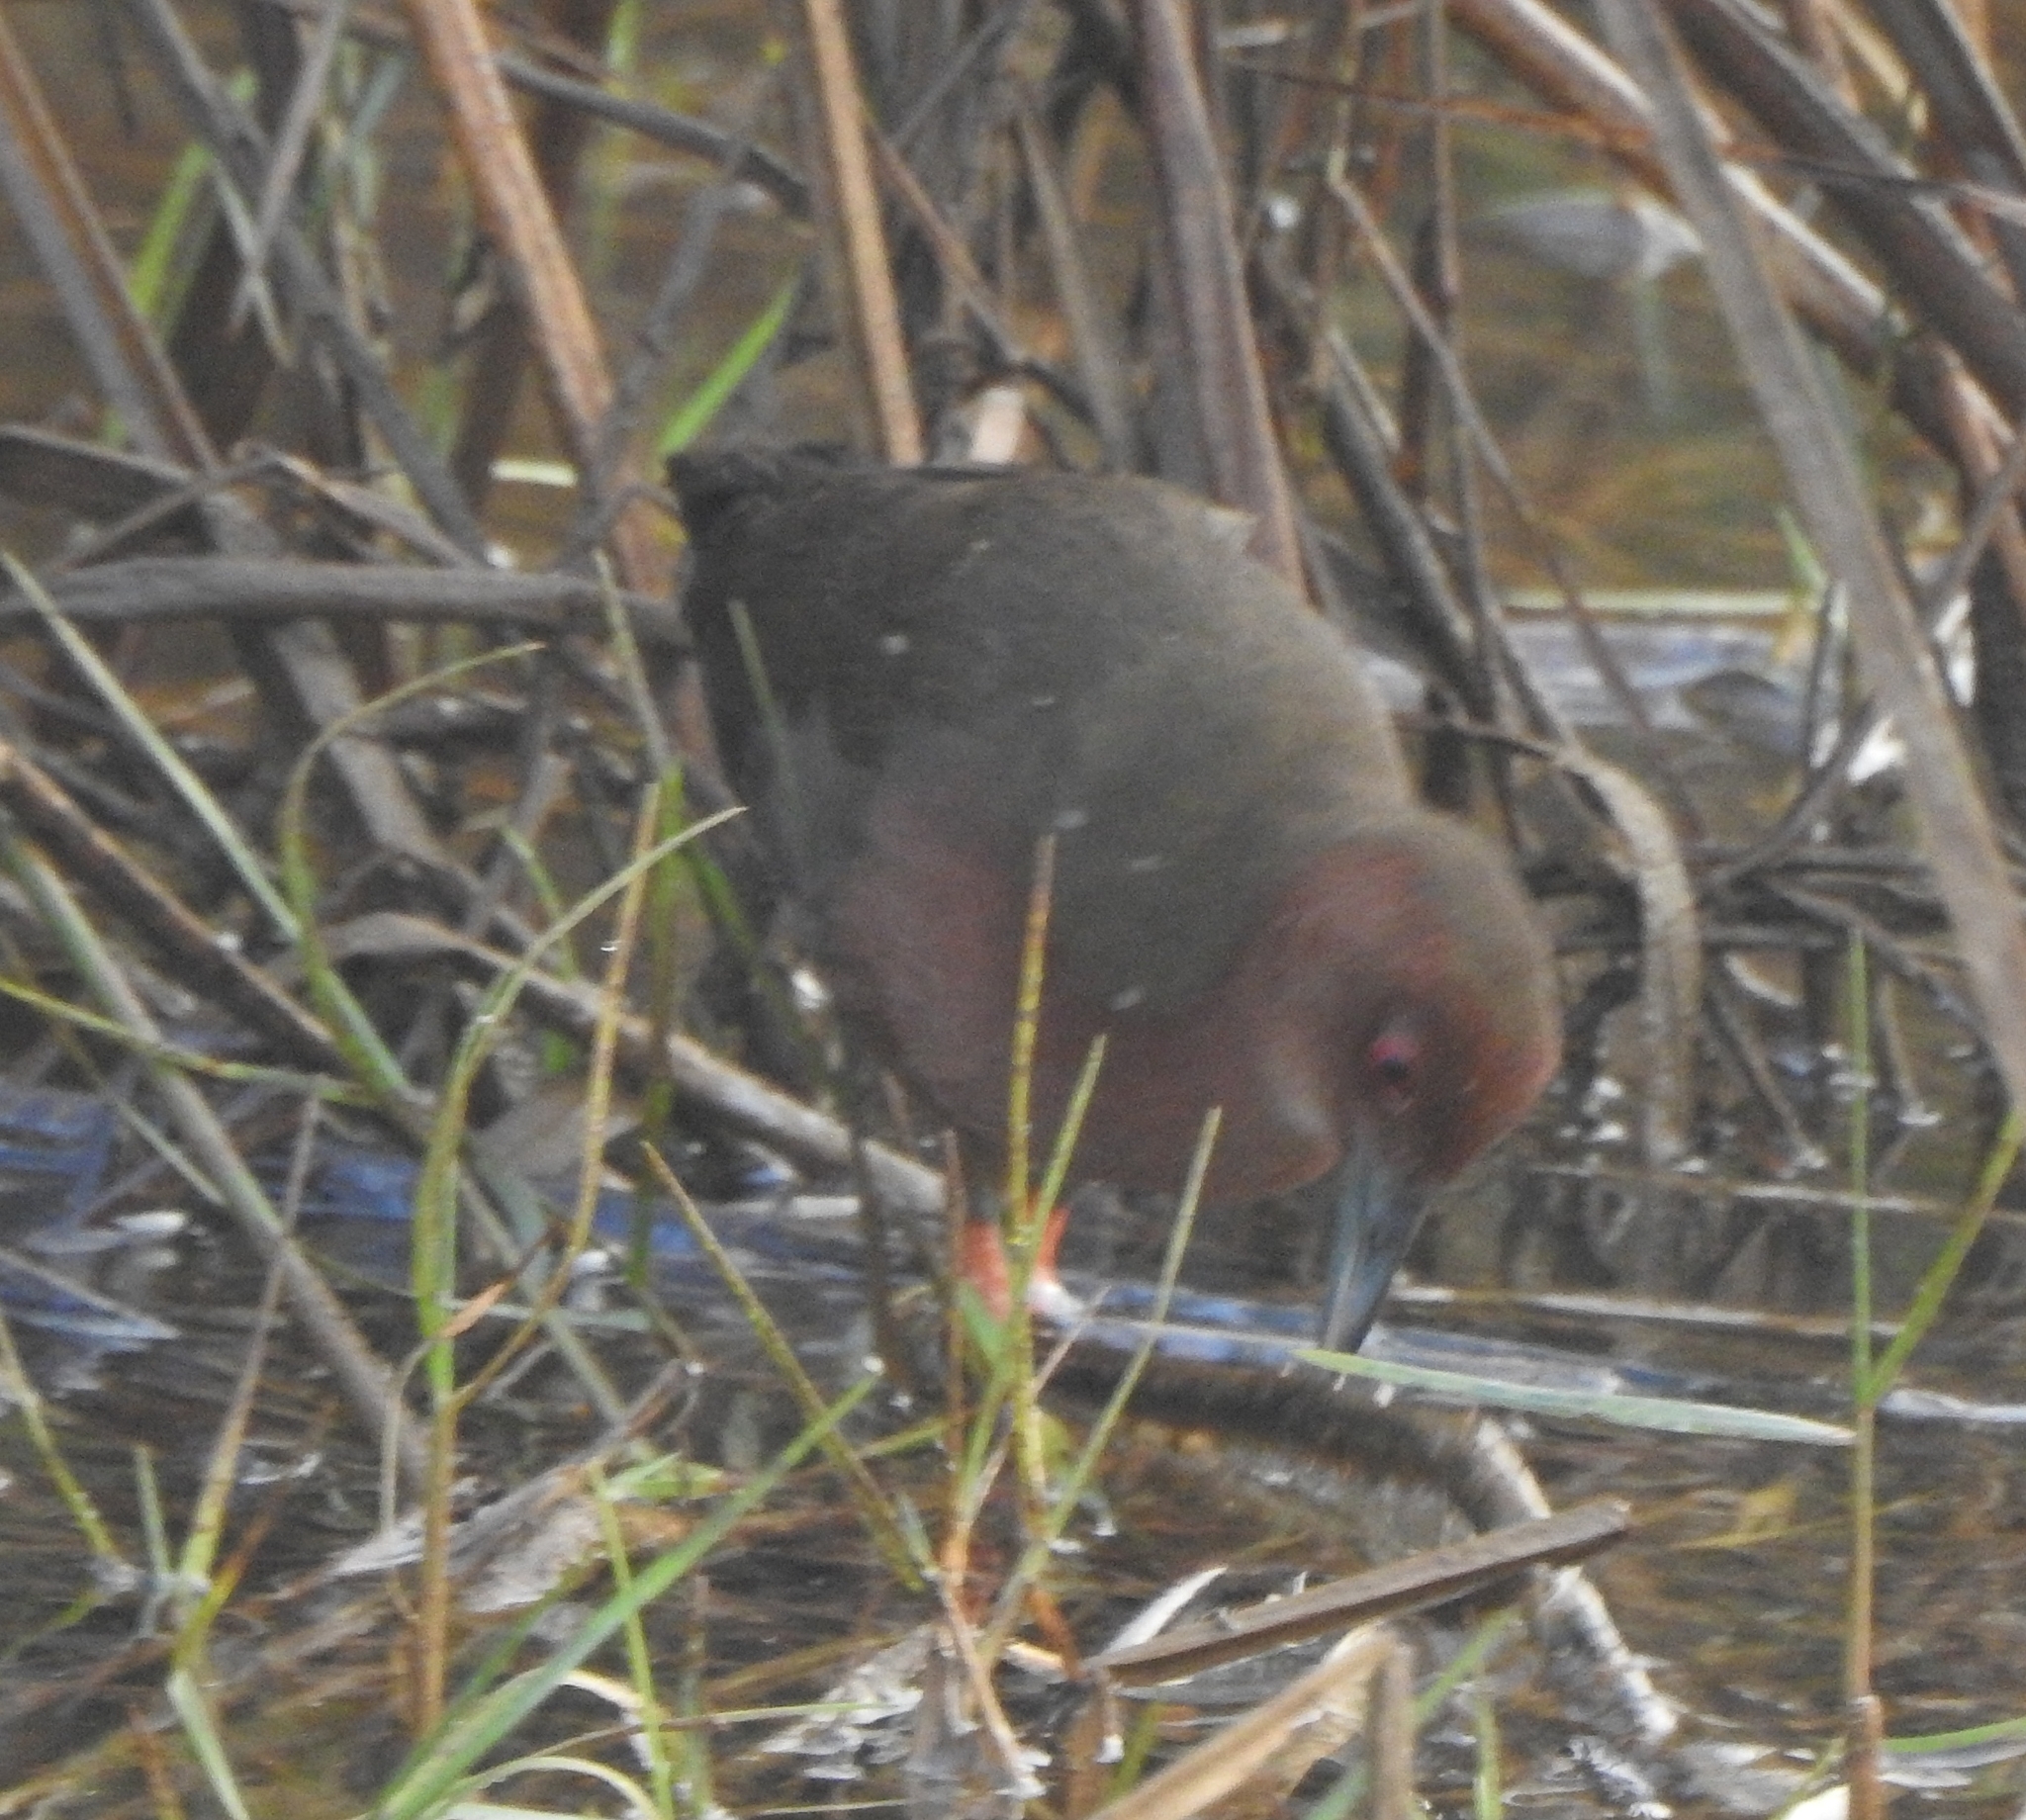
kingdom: Animalia
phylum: Chordata
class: Aves
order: Gruiformes
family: Rallidae
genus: Porzana
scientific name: Porzana fusca
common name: Ruddy-breasted crake
